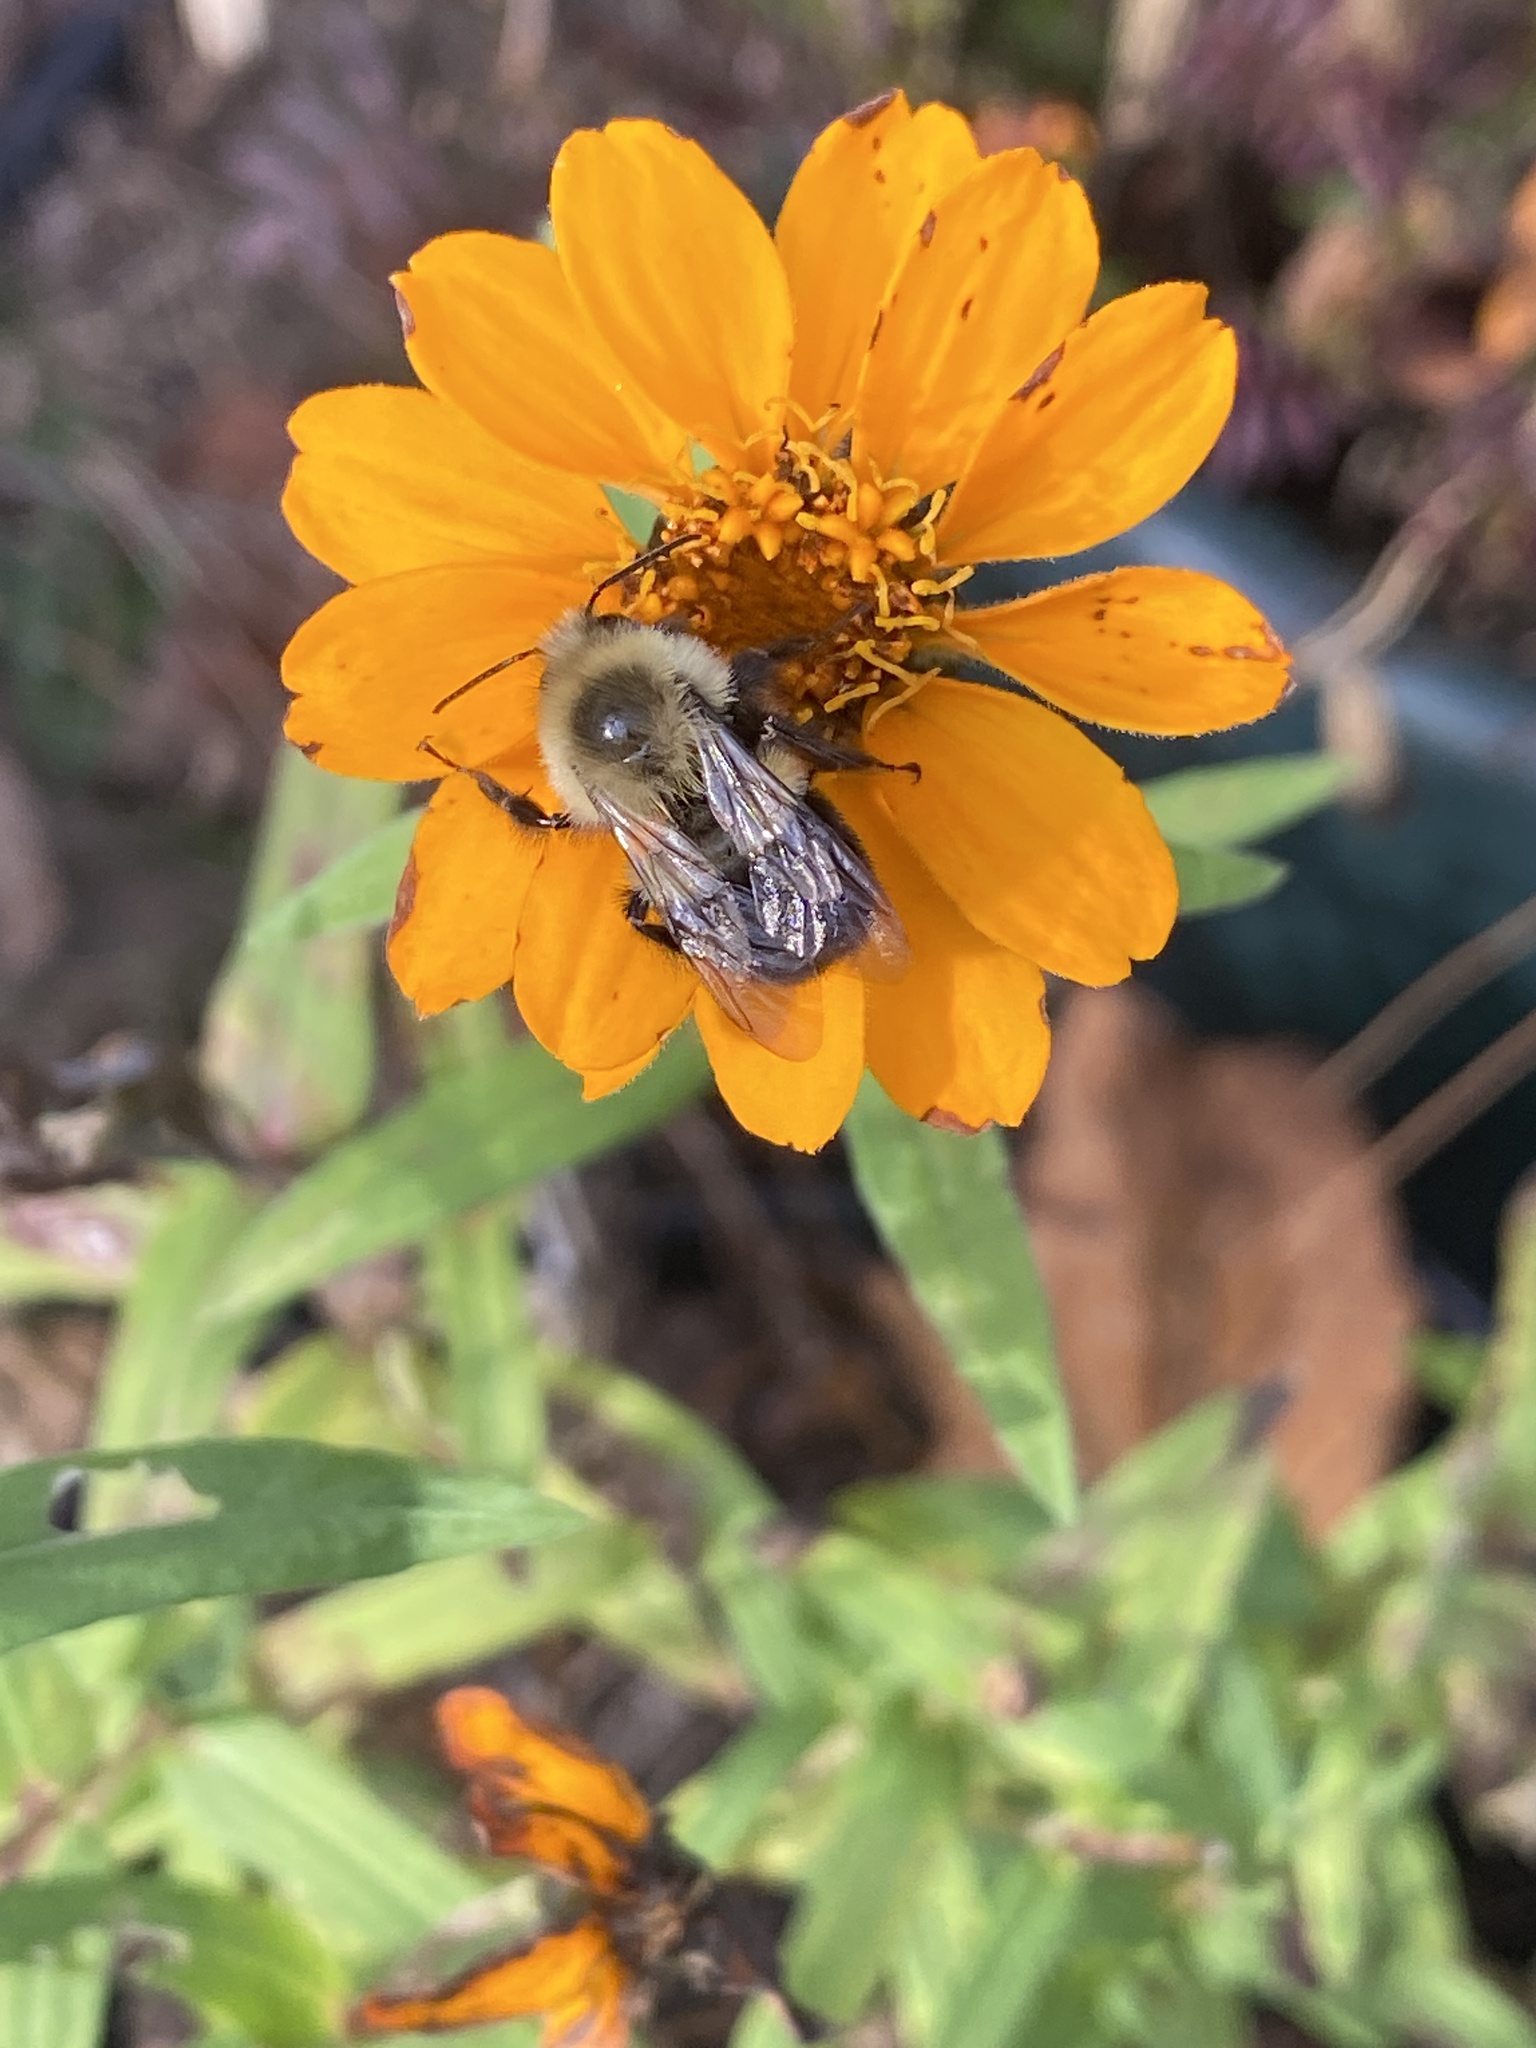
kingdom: Animalia
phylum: Arthropoda
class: Insecta
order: Hymenoptera
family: Apidae
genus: Bombus
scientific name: Bombus impatiens
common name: Common eastern bumble bee
